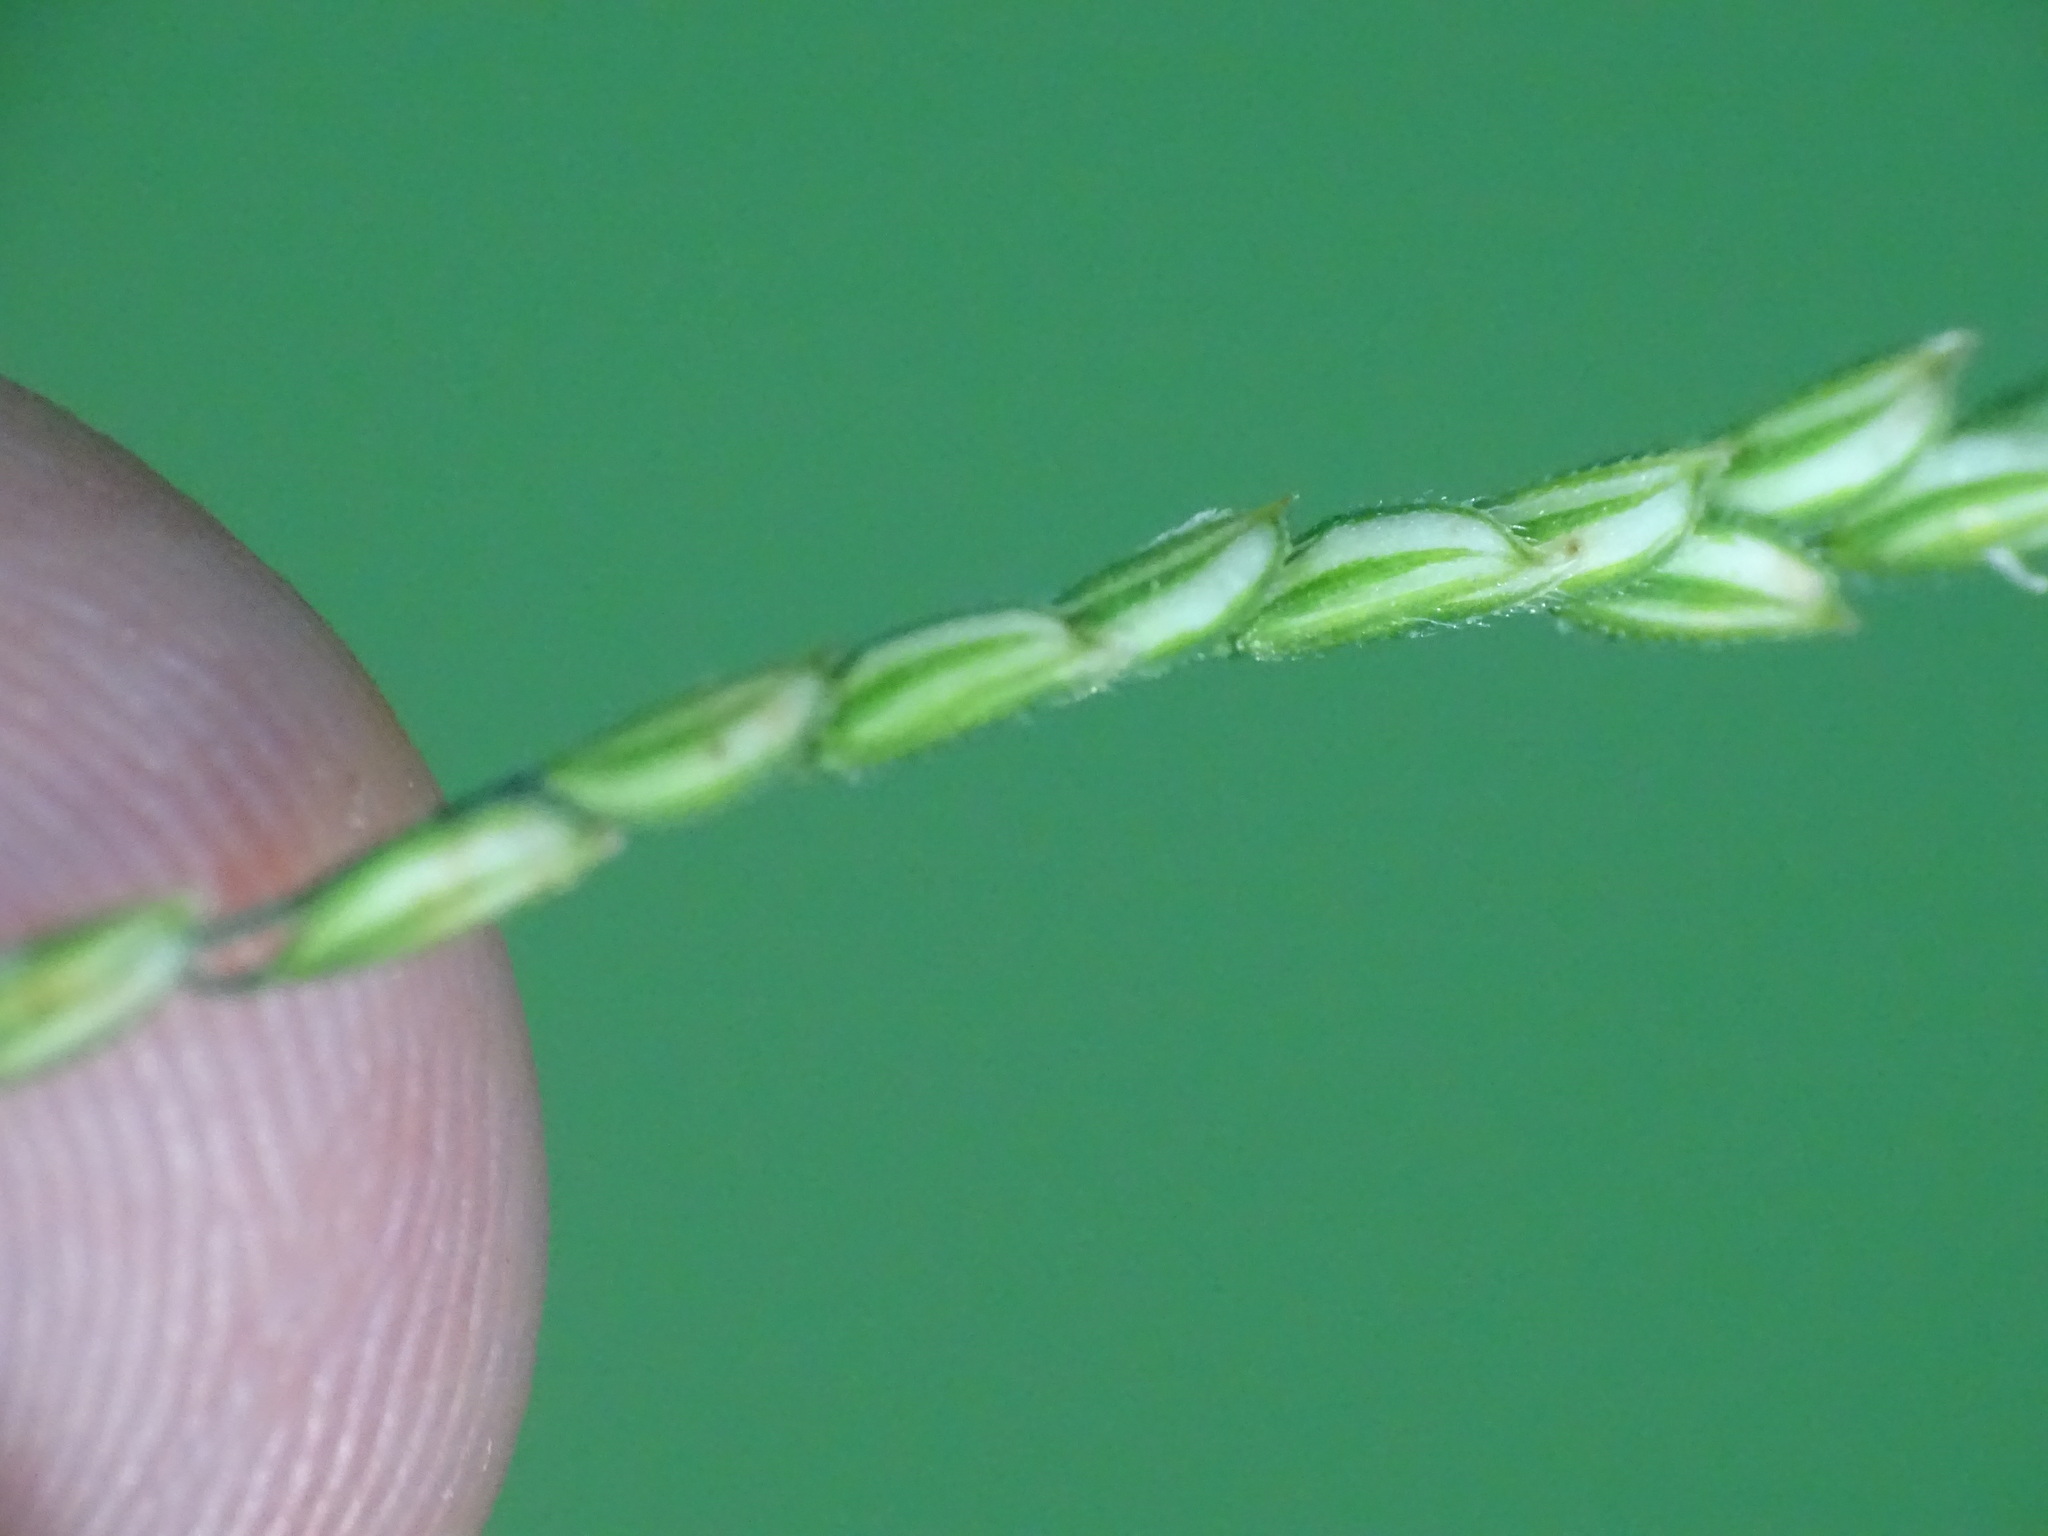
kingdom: Plantae
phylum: Tracheophyta
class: Liliopsida
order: Poales
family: Poaceae
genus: Leersia
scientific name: Leersia virginica
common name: White cutgrass
